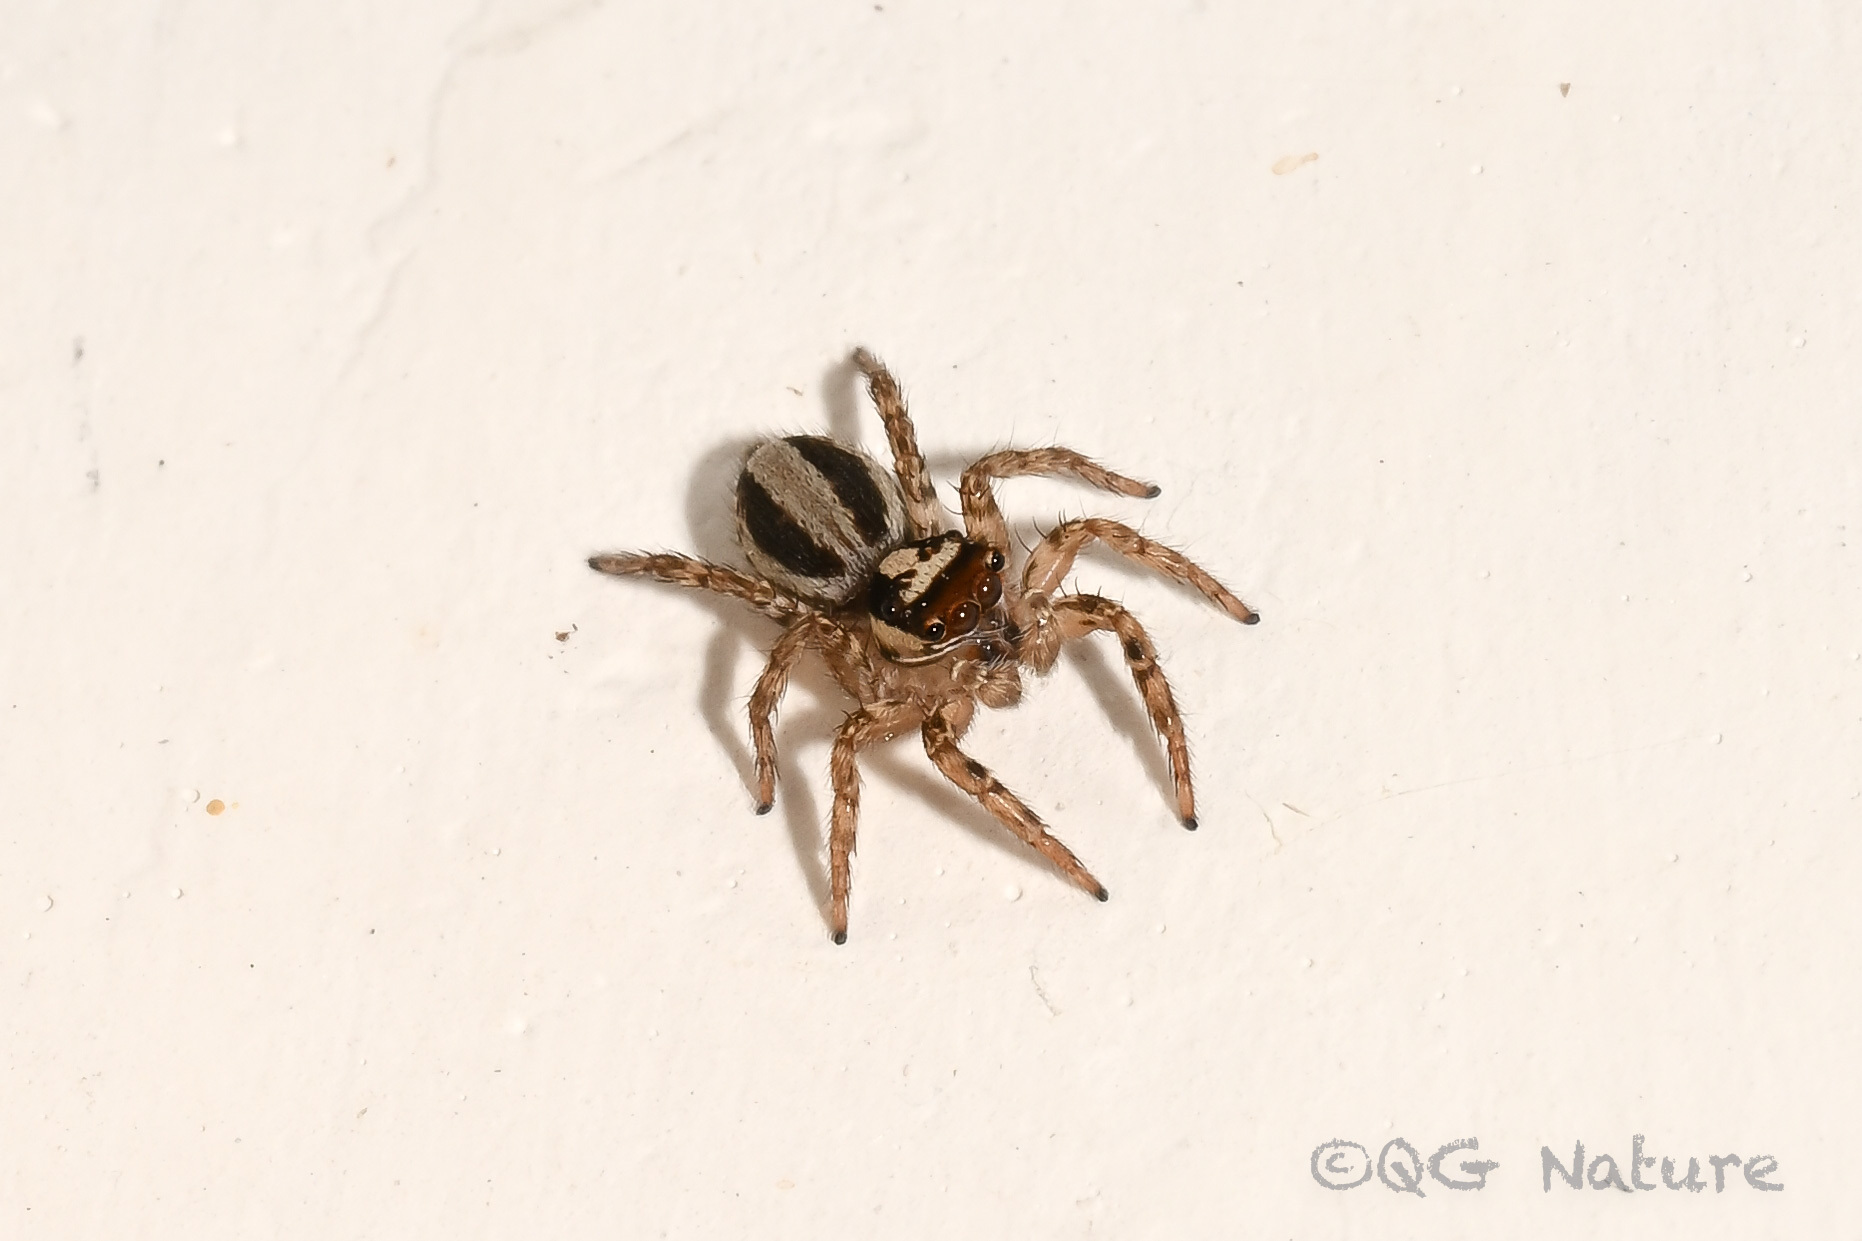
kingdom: Animalia
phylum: Arthropoda
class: Arachnida
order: Araneae
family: Salticidae
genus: Plexippus
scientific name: Plexippus setipes
